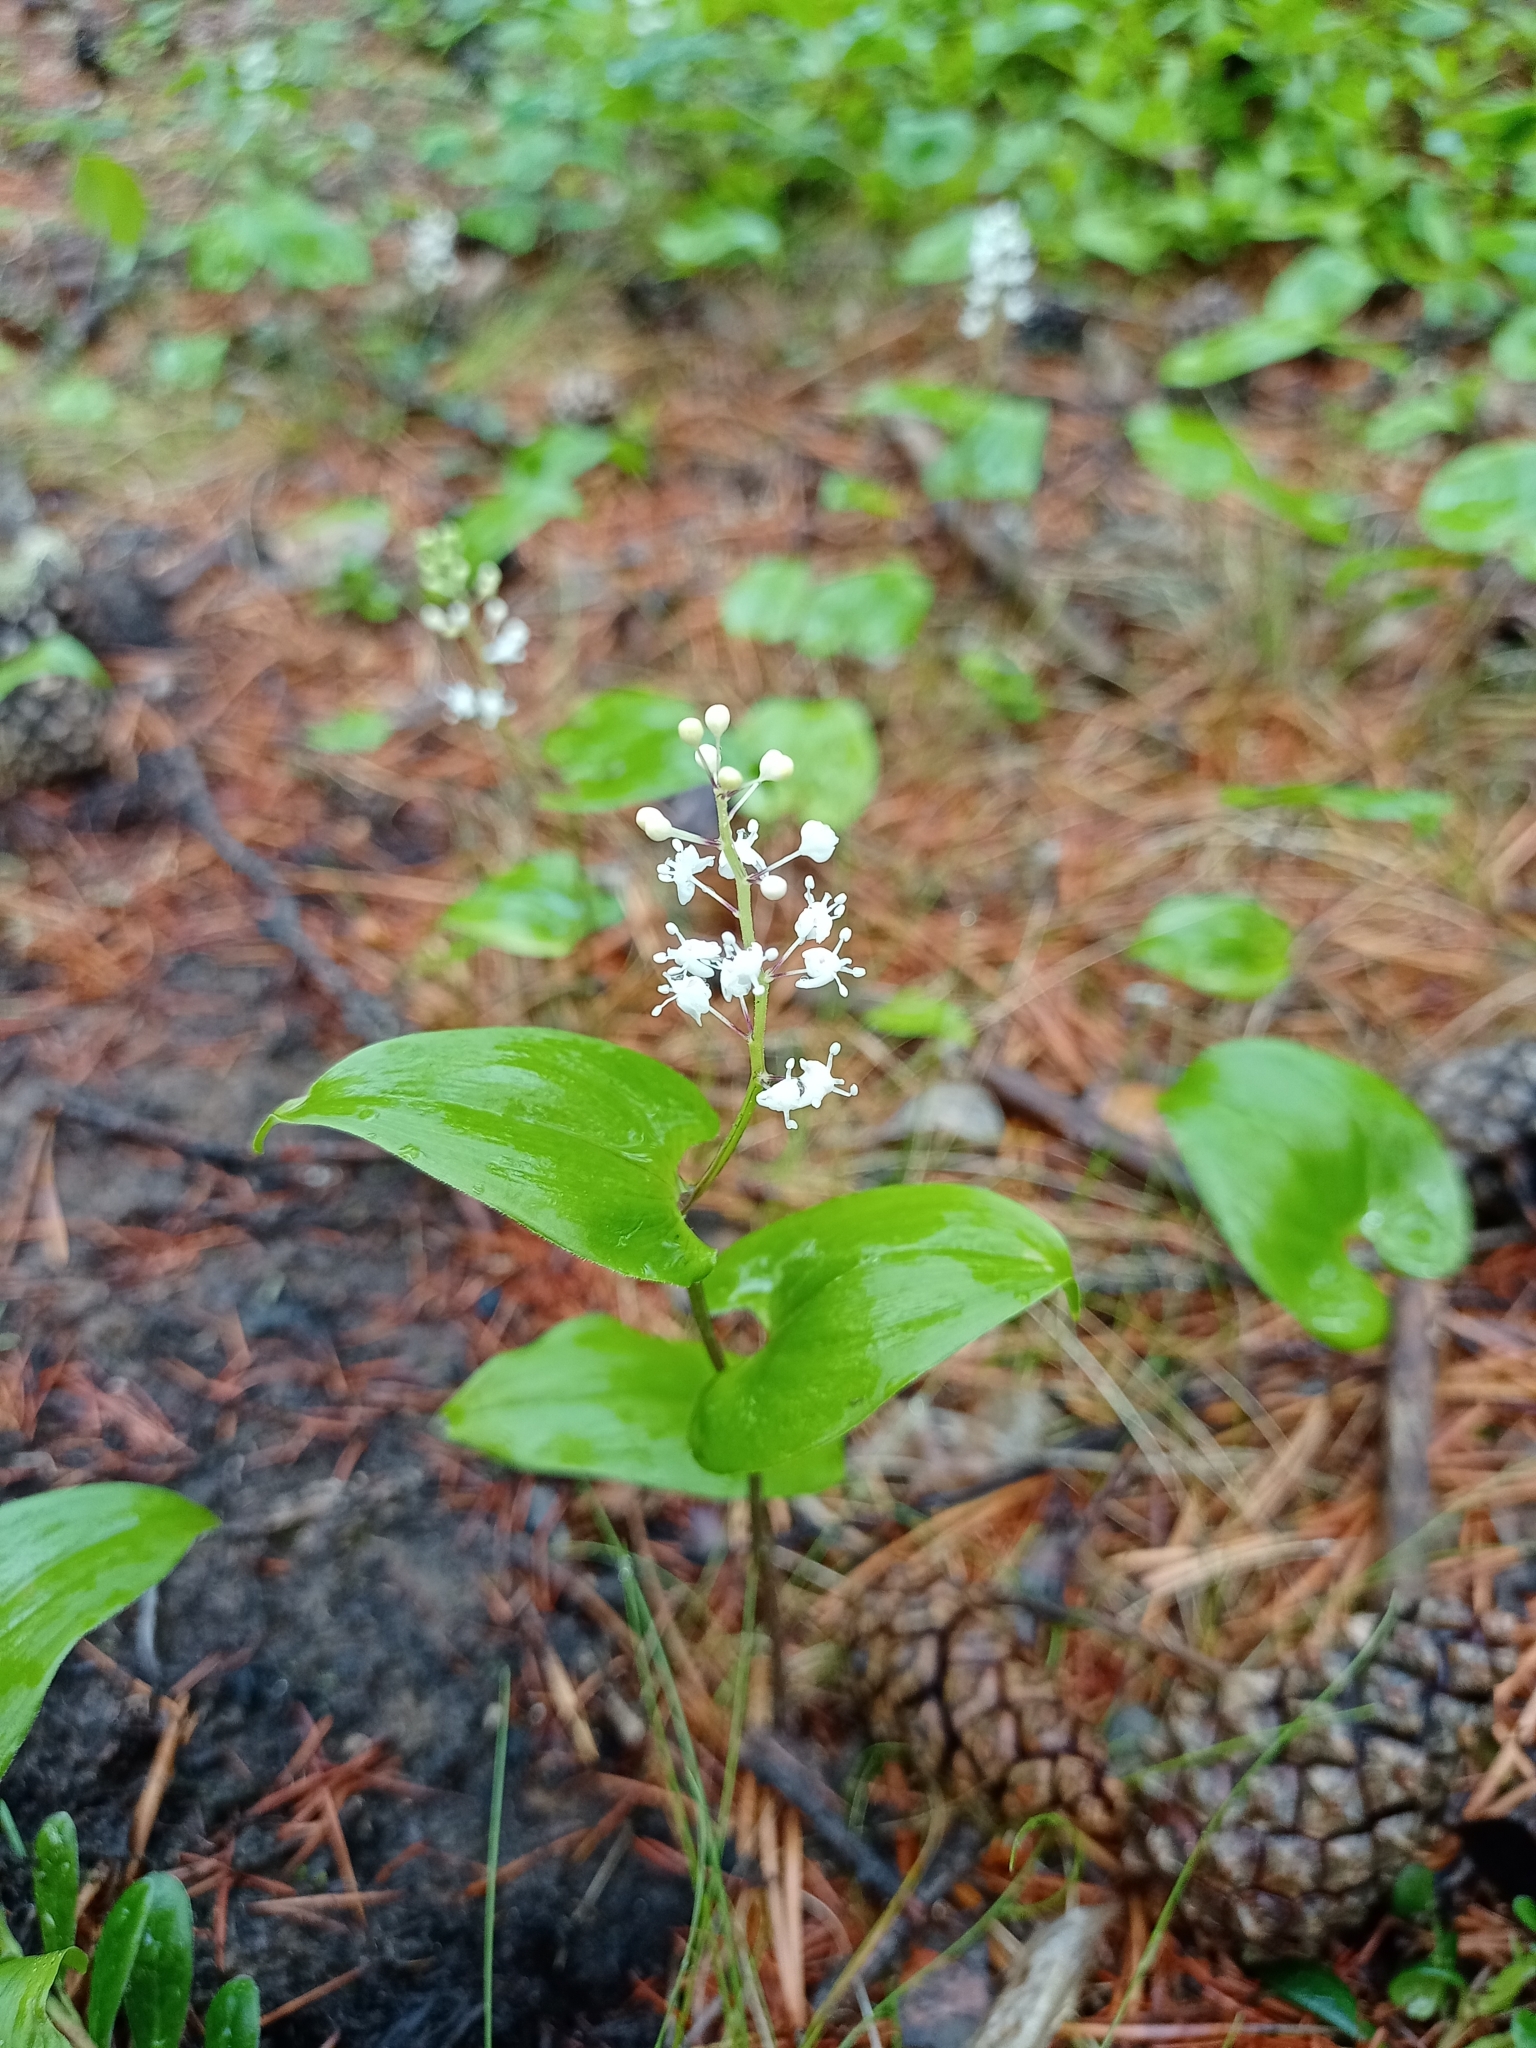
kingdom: Plantae
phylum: Tracheophyta
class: Liliopsida
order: Asparagales
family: Asparagaceae
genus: Maianthemum
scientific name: Maianthemum bifolium
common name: May lily
